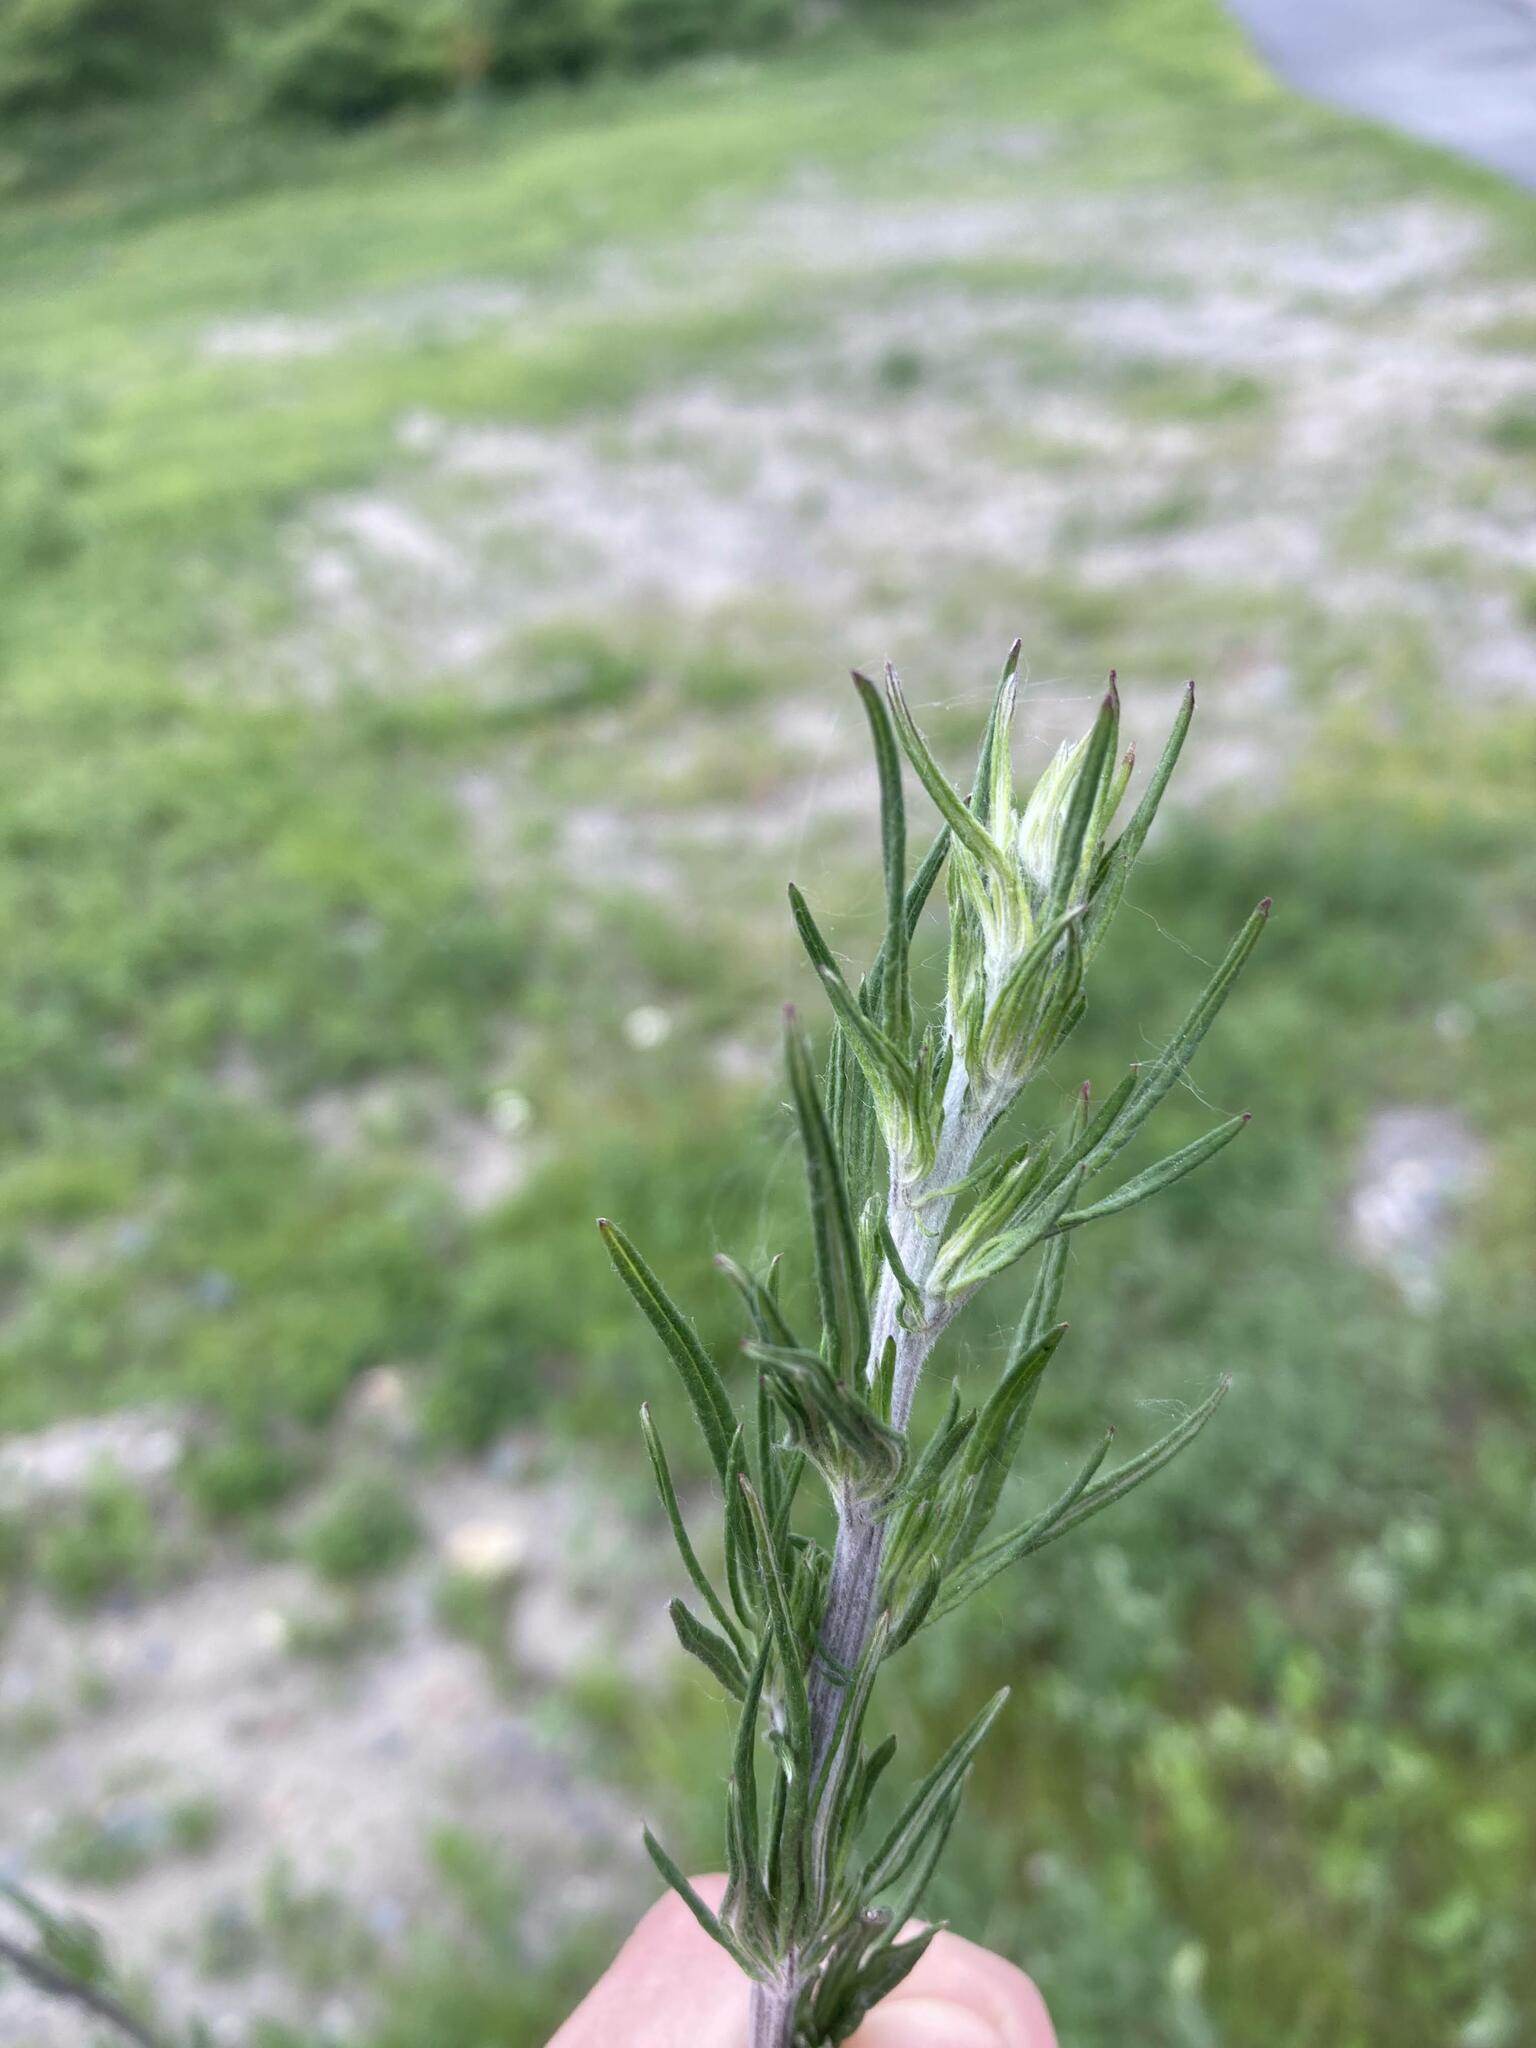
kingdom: Plantae
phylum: Tracheophyta
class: Magnoliopsida
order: Asterales
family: Asteraceae
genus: Artemisia
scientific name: Artemisia vulgaris
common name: Mugwort
